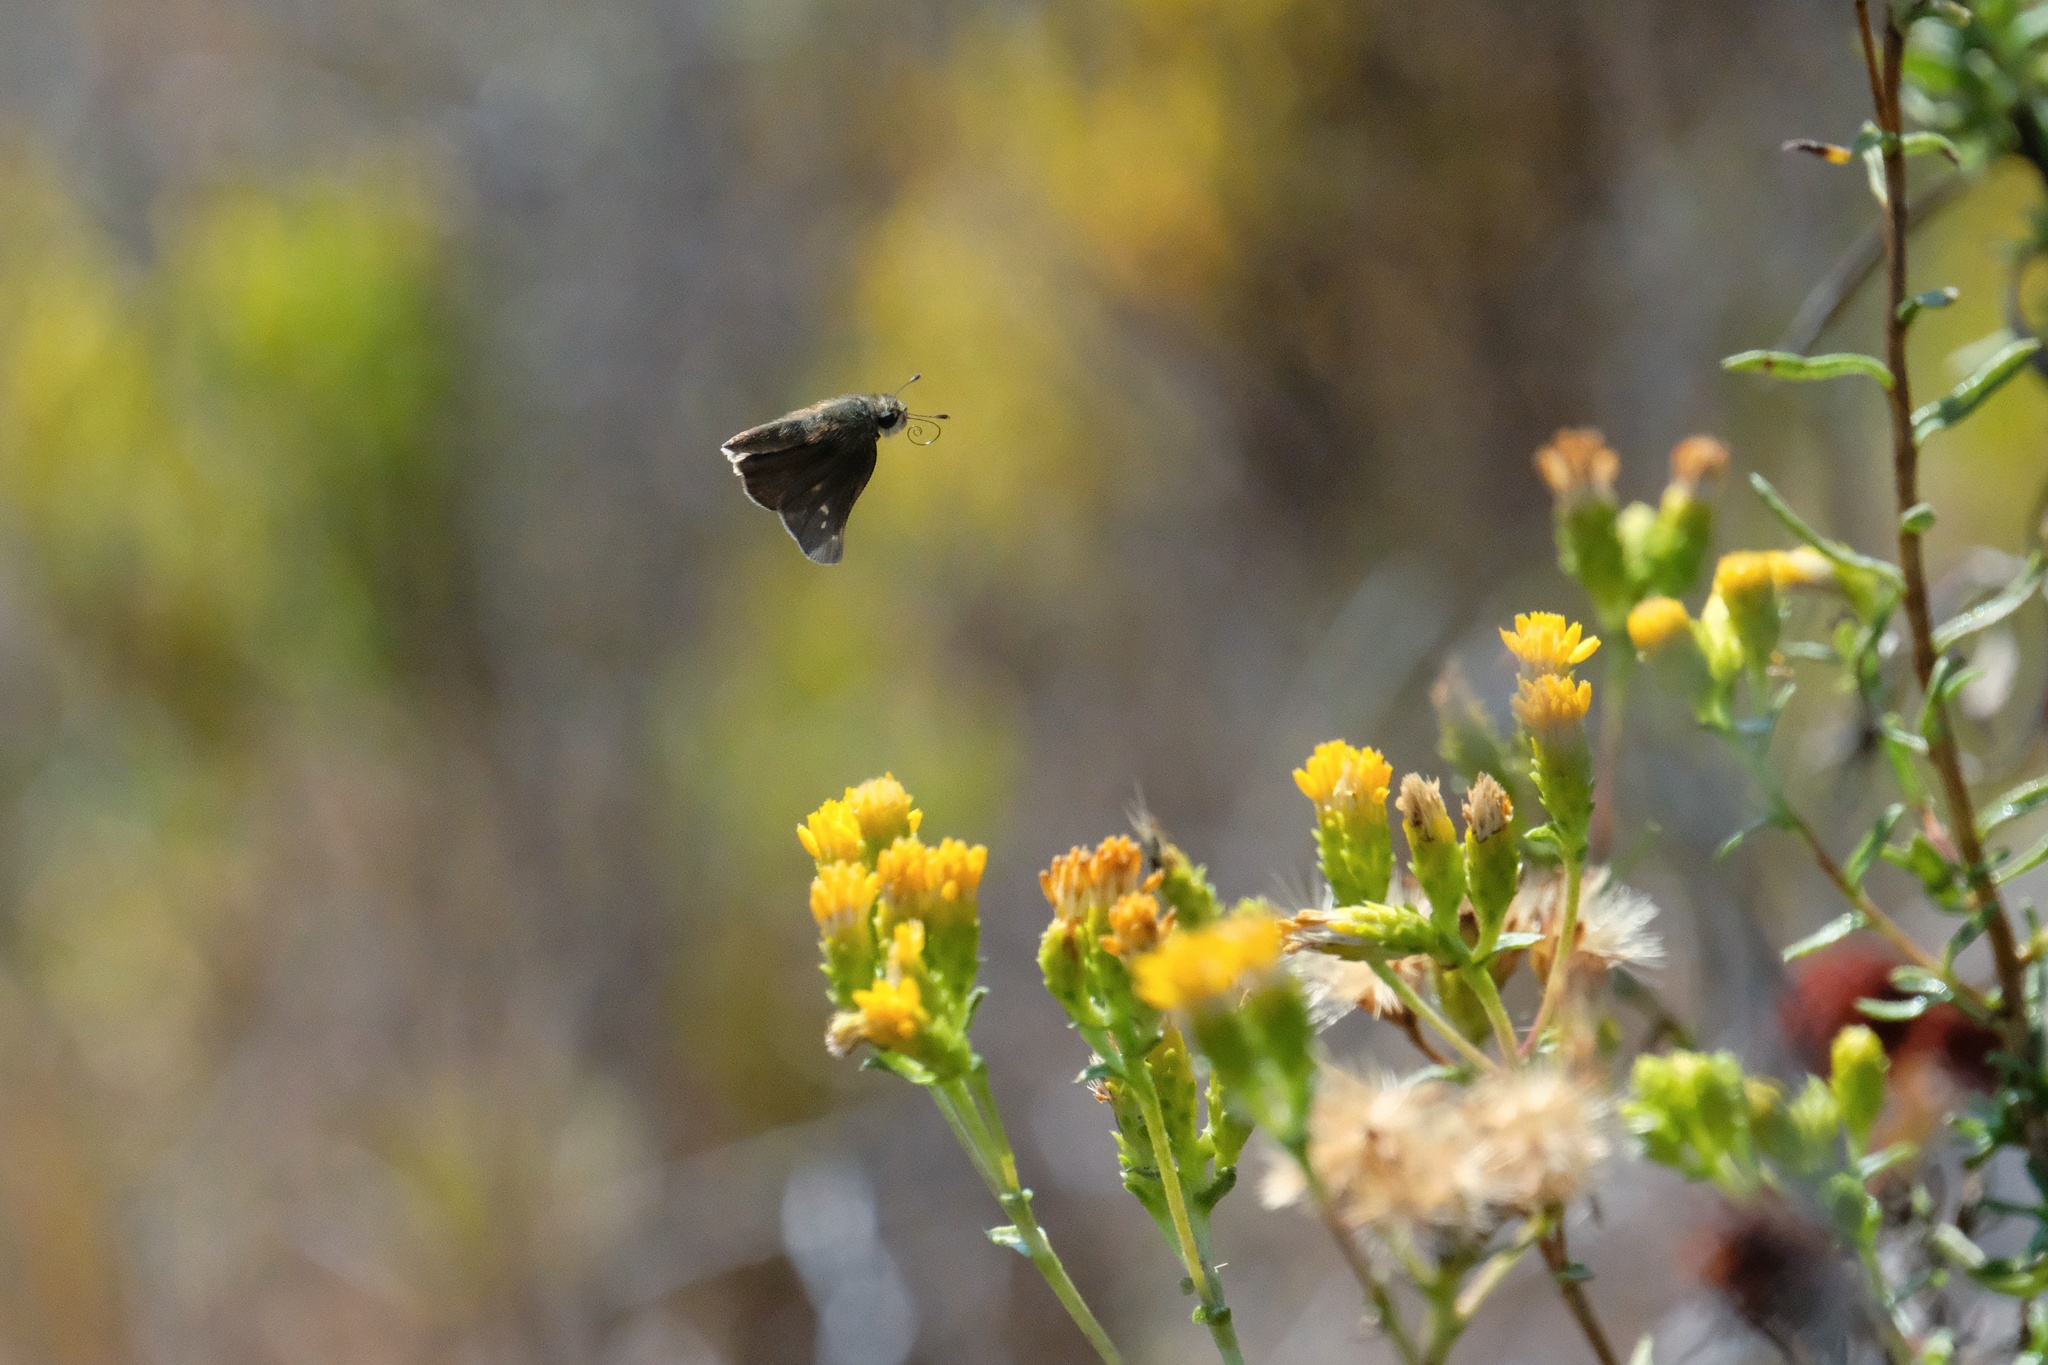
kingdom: Animalia
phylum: Arthropoda
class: Insecta
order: Lepidoptera
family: Hesperiidae
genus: Lerodea
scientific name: Lerodea eufala
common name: Eufala skipper
